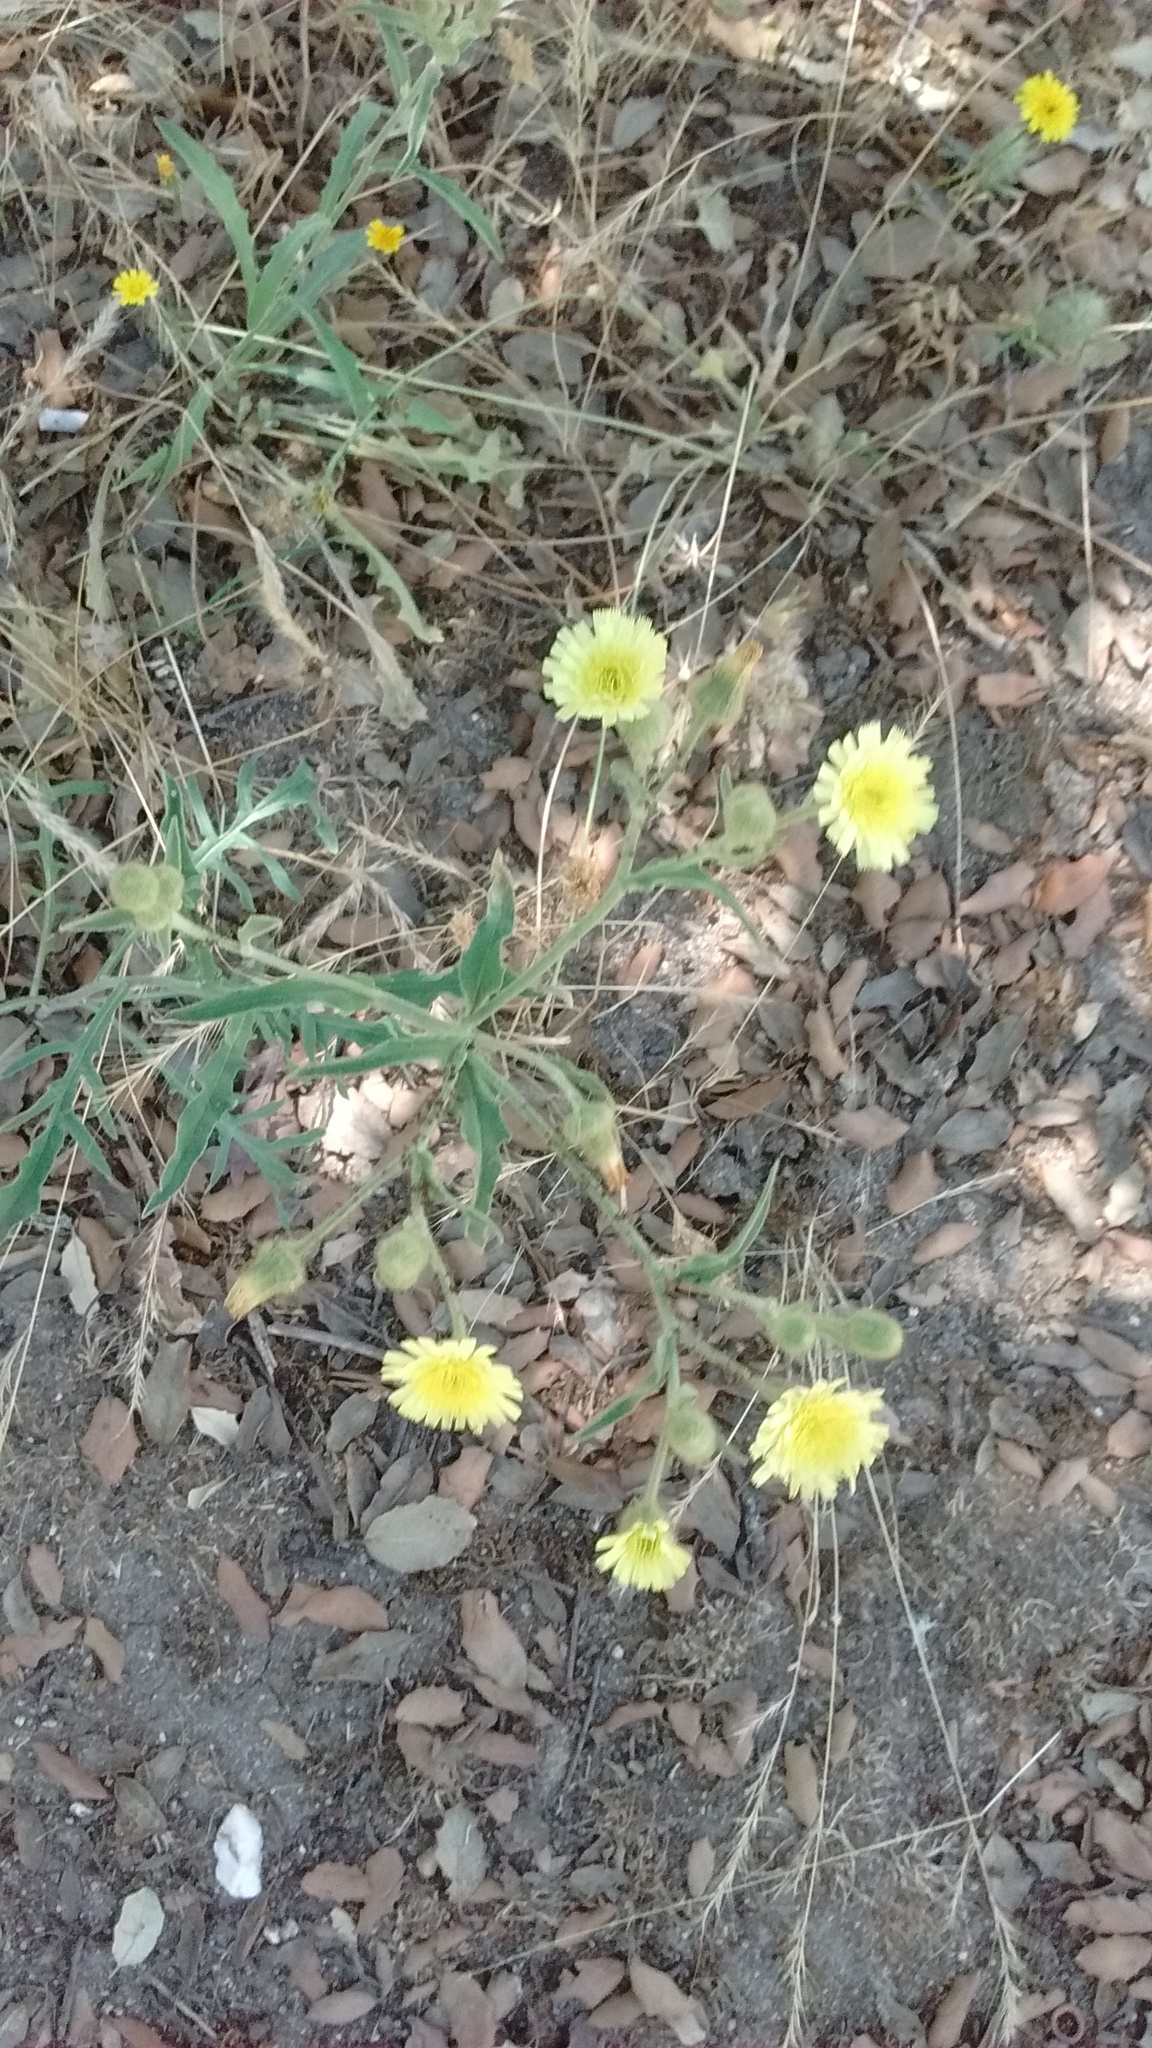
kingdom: Plantae
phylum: Tracheophyta
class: Magnoliopsida
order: Asterales
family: Asteraceae
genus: Andryala
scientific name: Andryala integrifolia
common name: Common andryala
